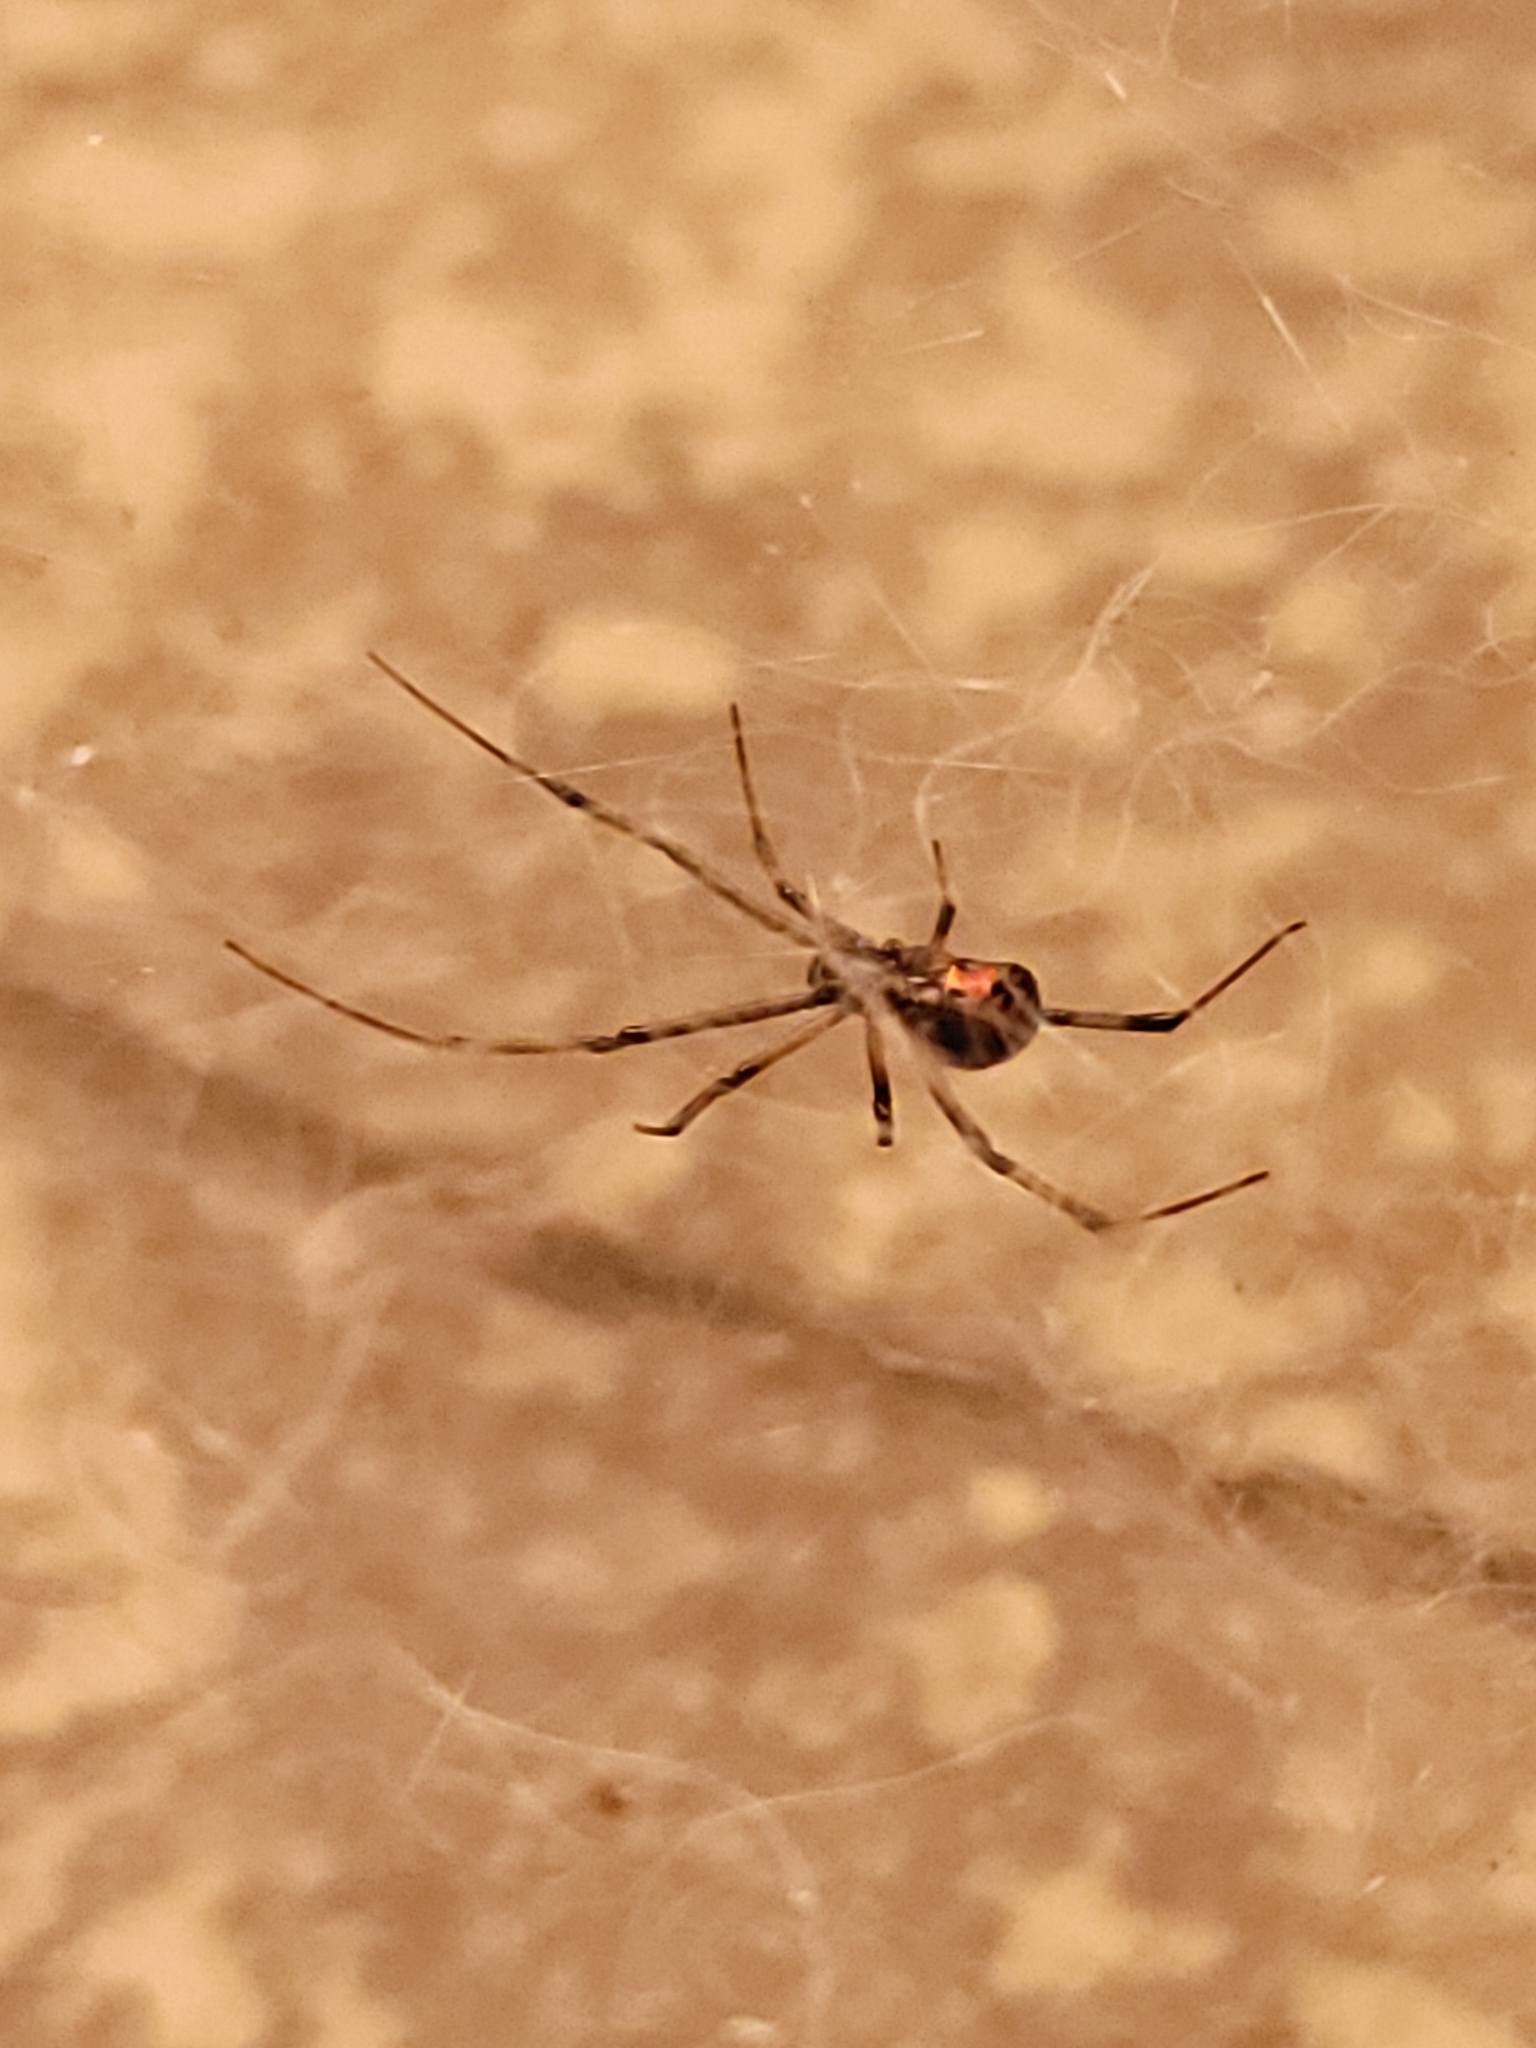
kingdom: Animalia
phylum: Arthropoda
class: Arachnida
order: Araneae
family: Theridiidae
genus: Latrodectus
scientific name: Latrodectus geometricus
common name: Brown widow spider
